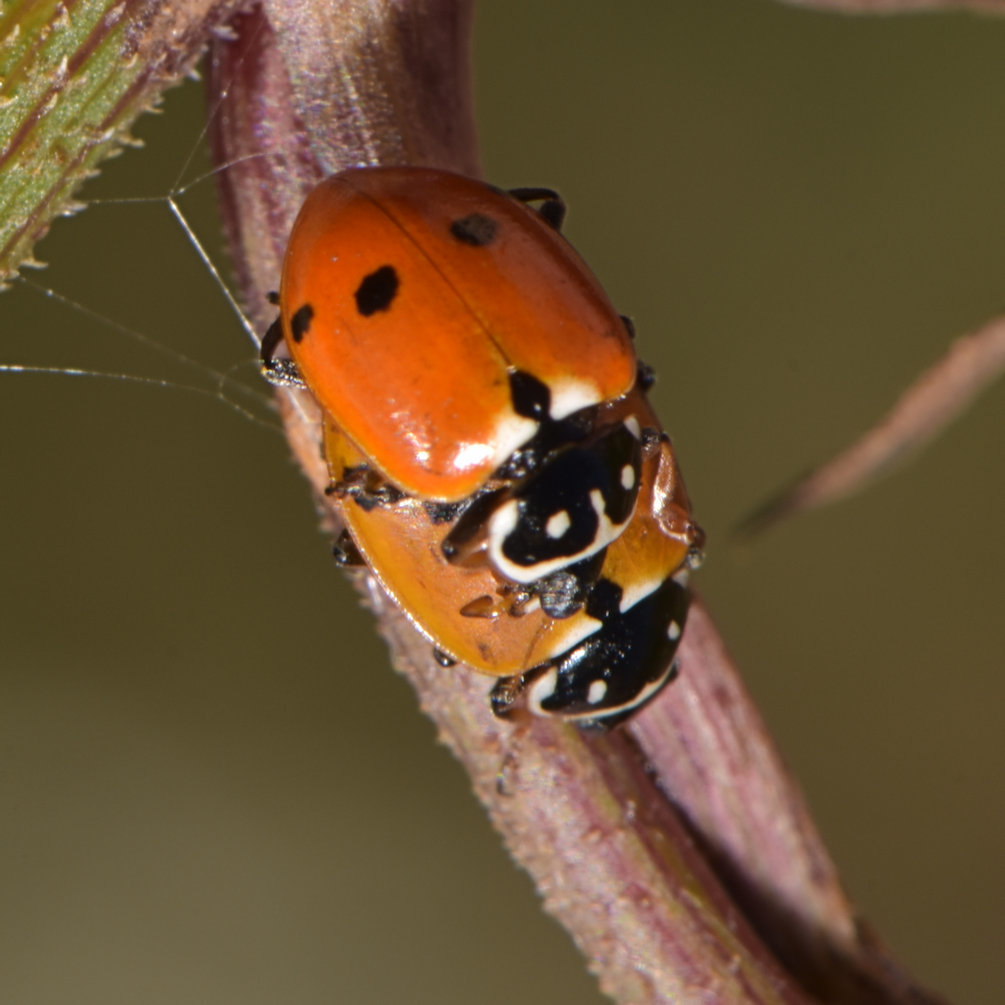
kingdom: Animalia
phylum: Arthropoda
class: Insecta
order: Coleoptera
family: Coccinellidae
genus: Hippodamia
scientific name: Hippodamia variegata
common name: Ladybird beetle
